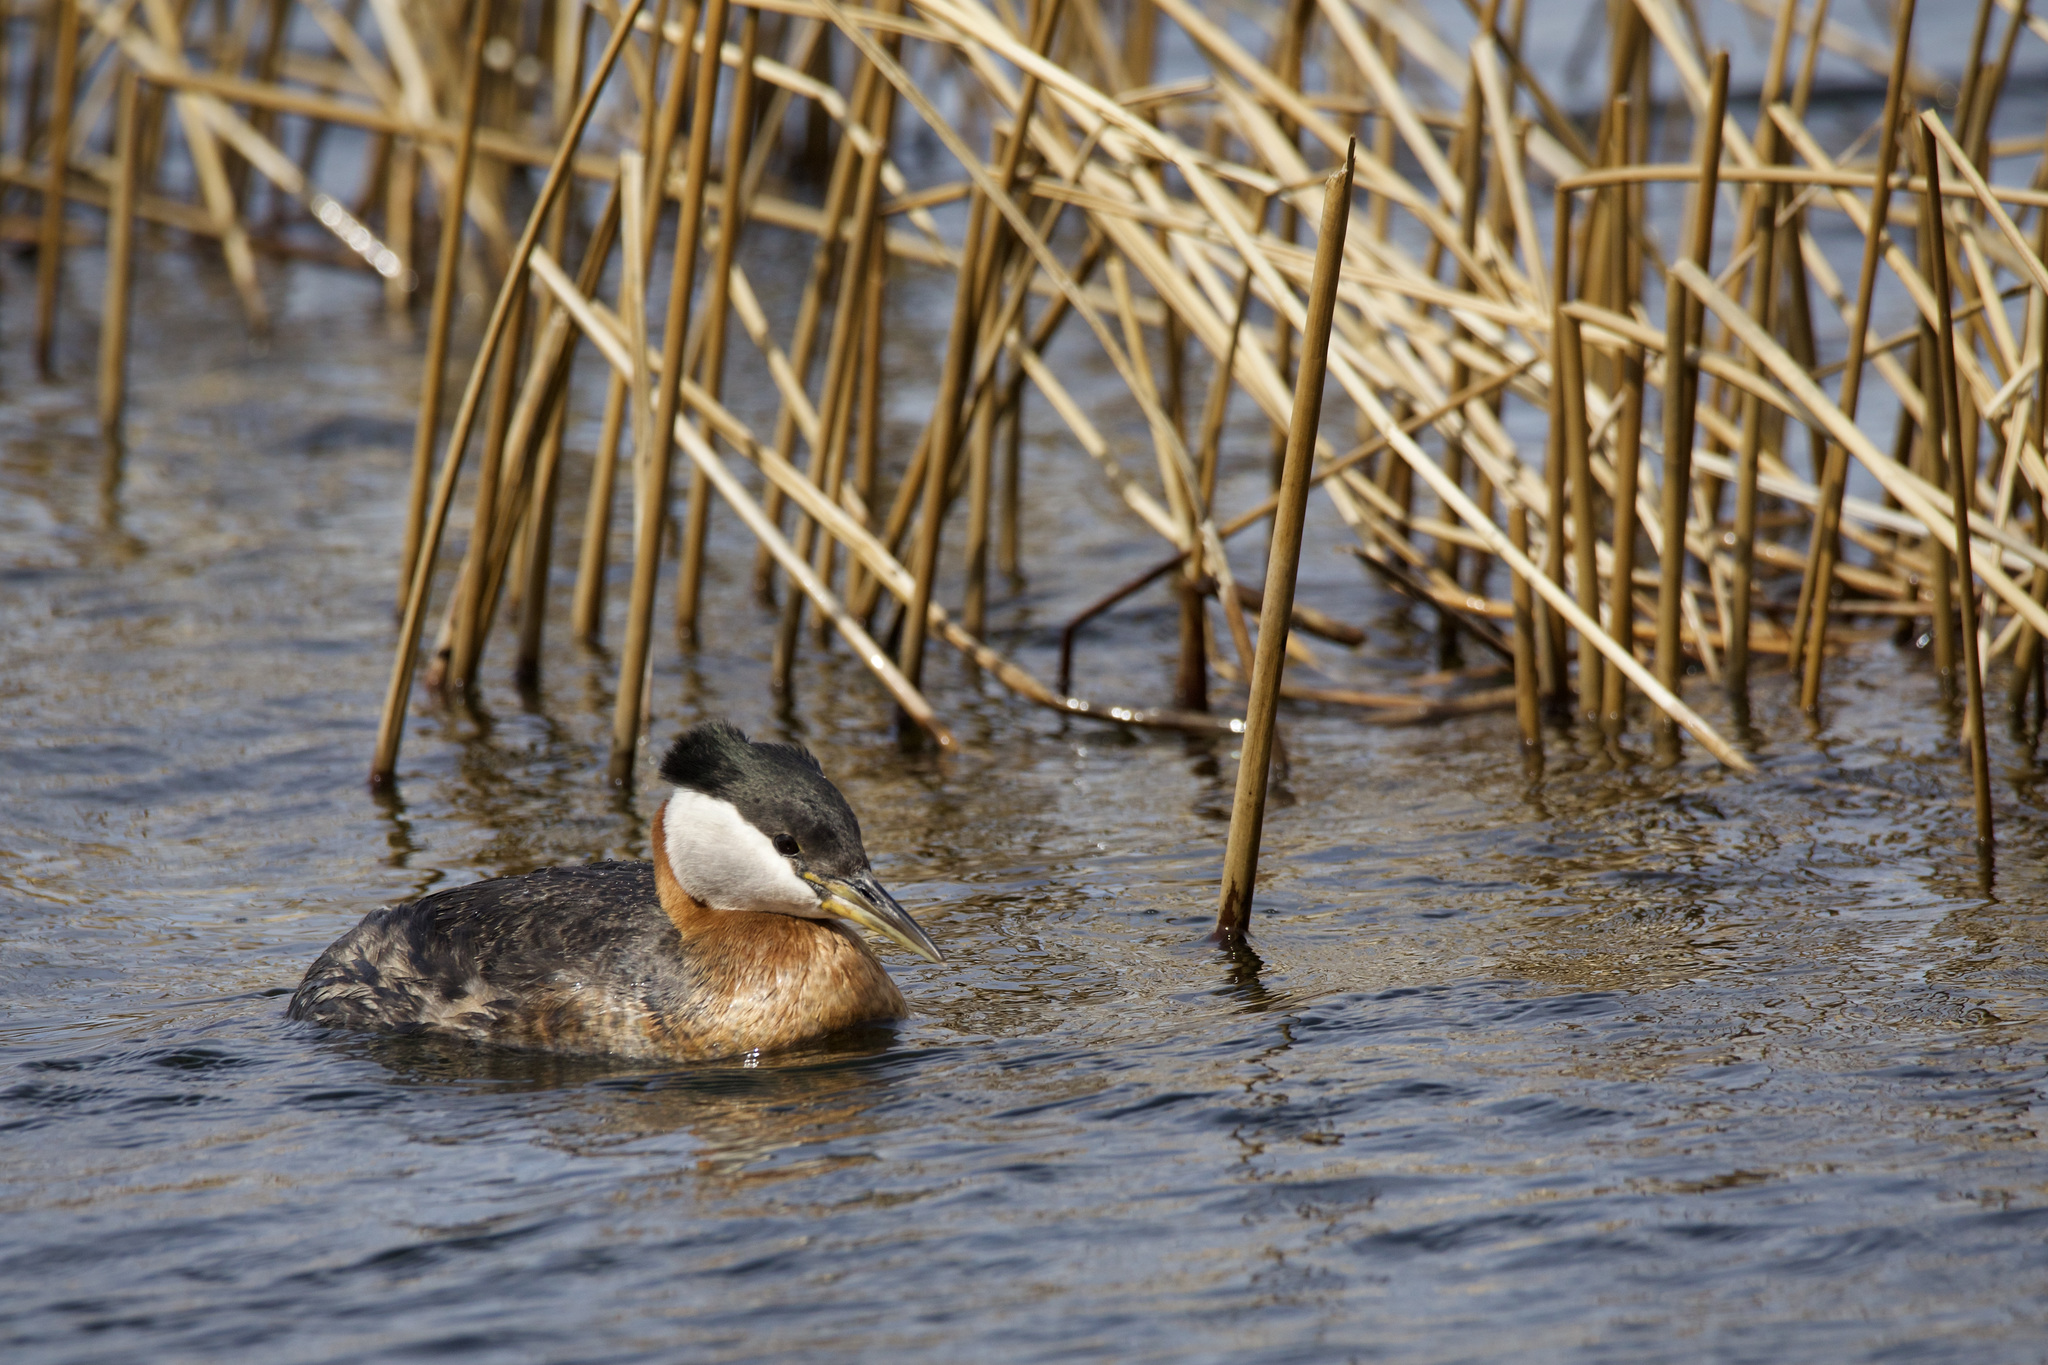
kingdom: Animalia
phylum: Chordata
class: Aves
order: Podicipediformes
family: Podicipedidae
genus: Podiceps
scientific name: Podiceps grisegena
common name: Red-necked grebe
